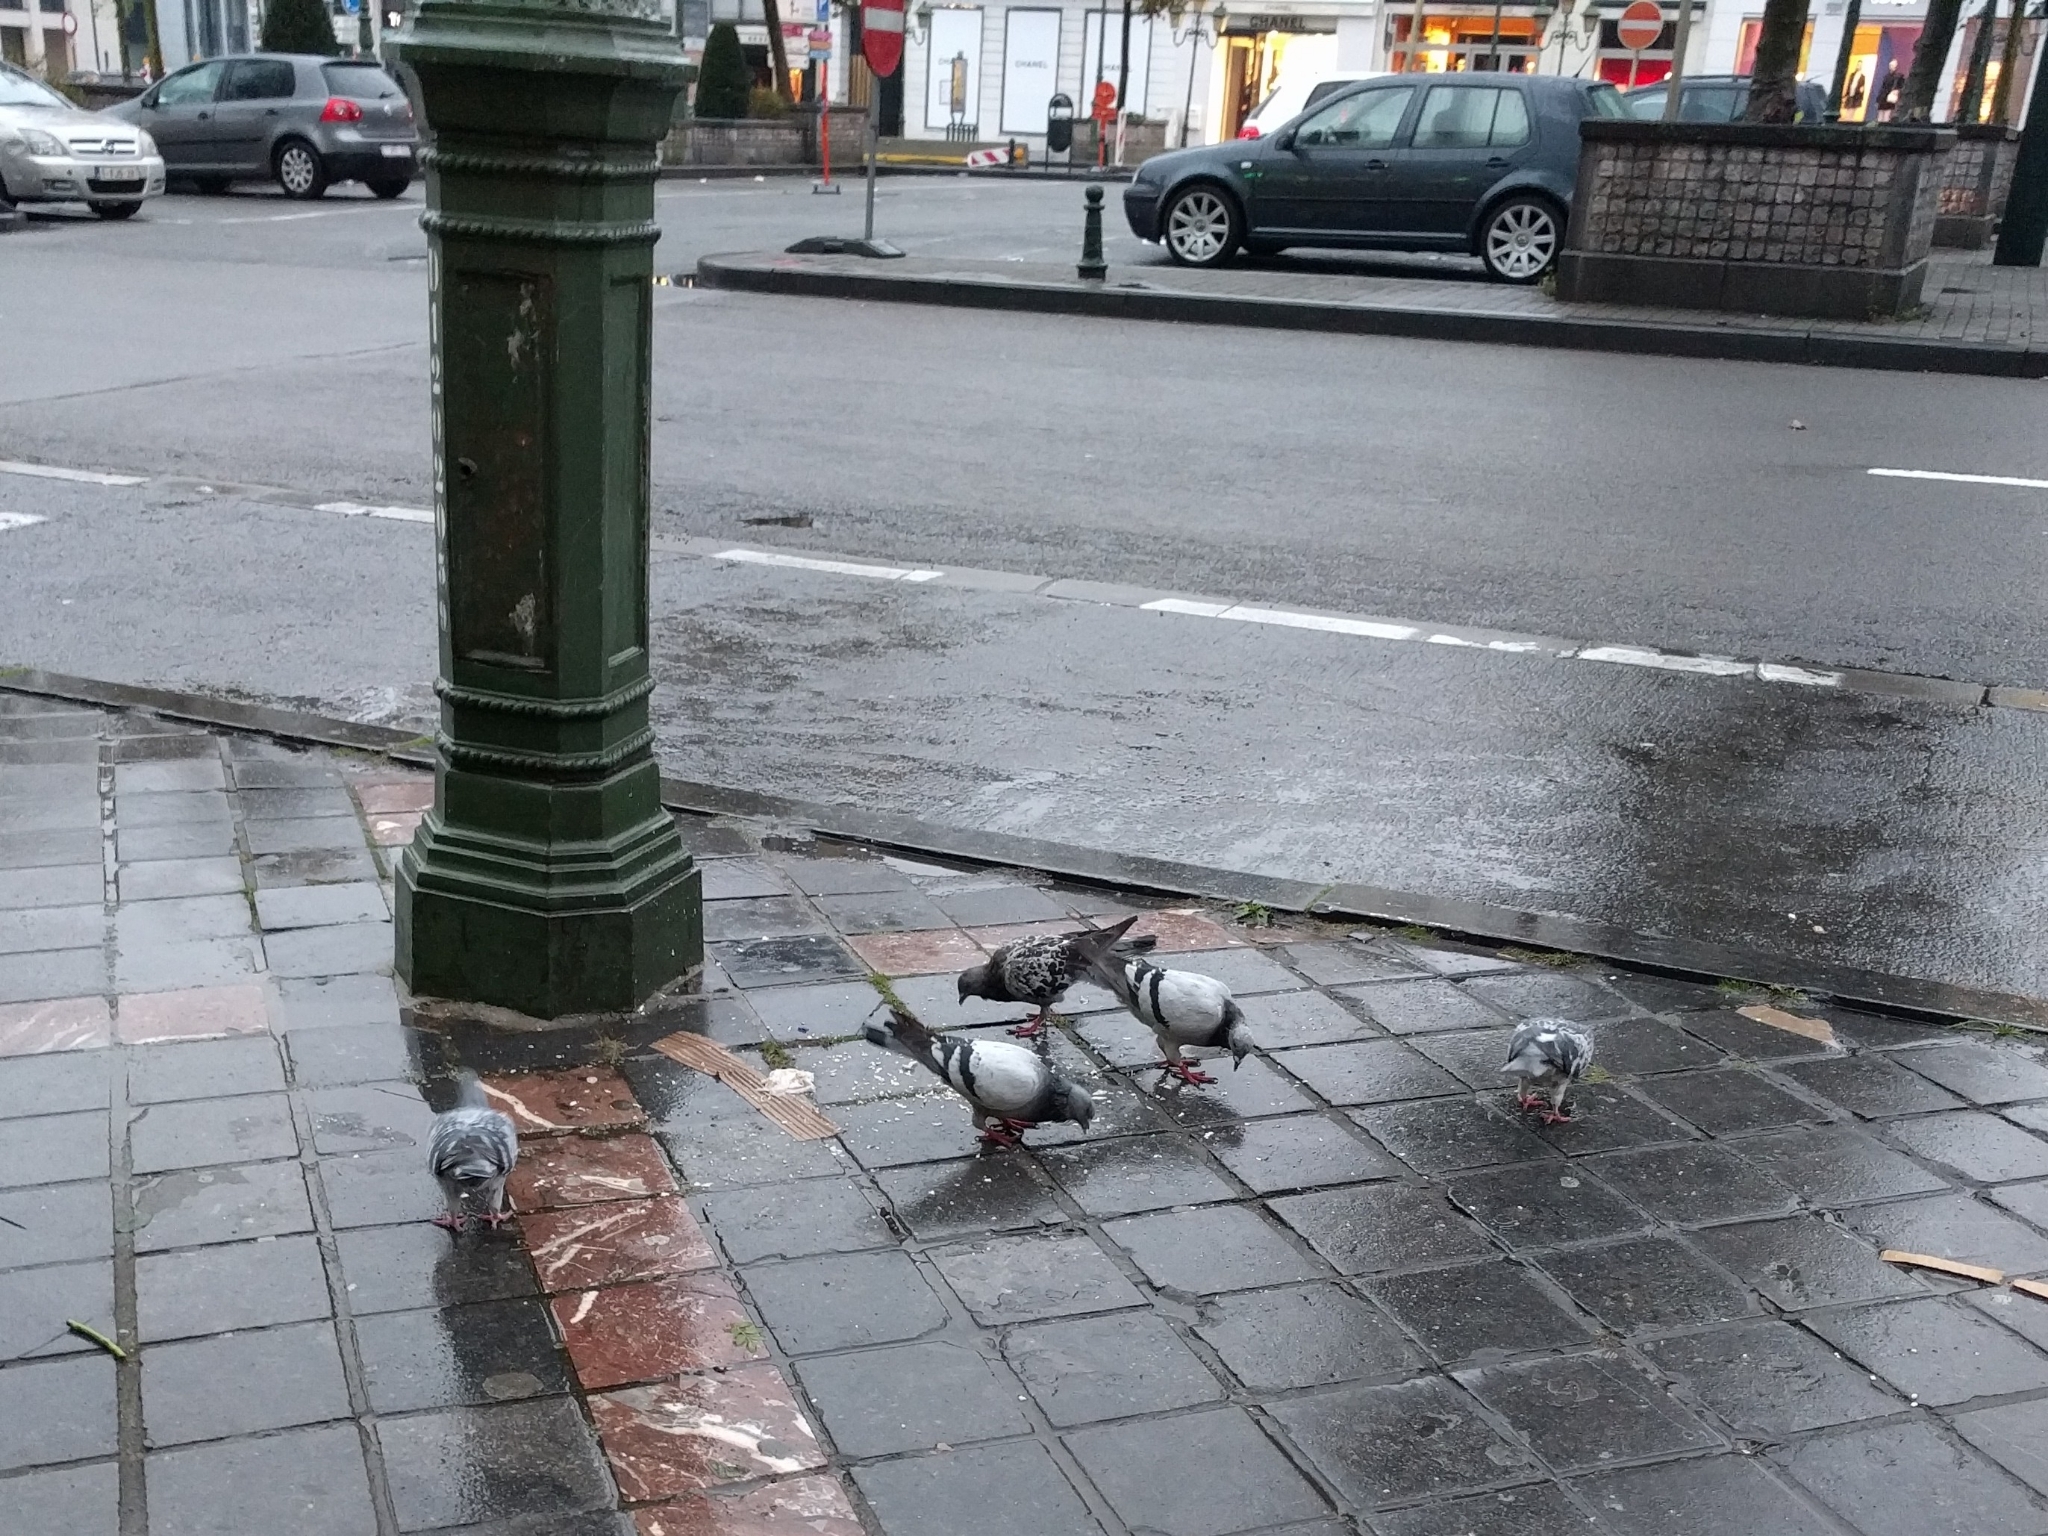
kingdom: Animalia
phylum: Chordata
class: Aves
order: Columbiformes
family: Columbidae
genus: Columba
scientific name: Columba livia
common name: Rock pigeon
